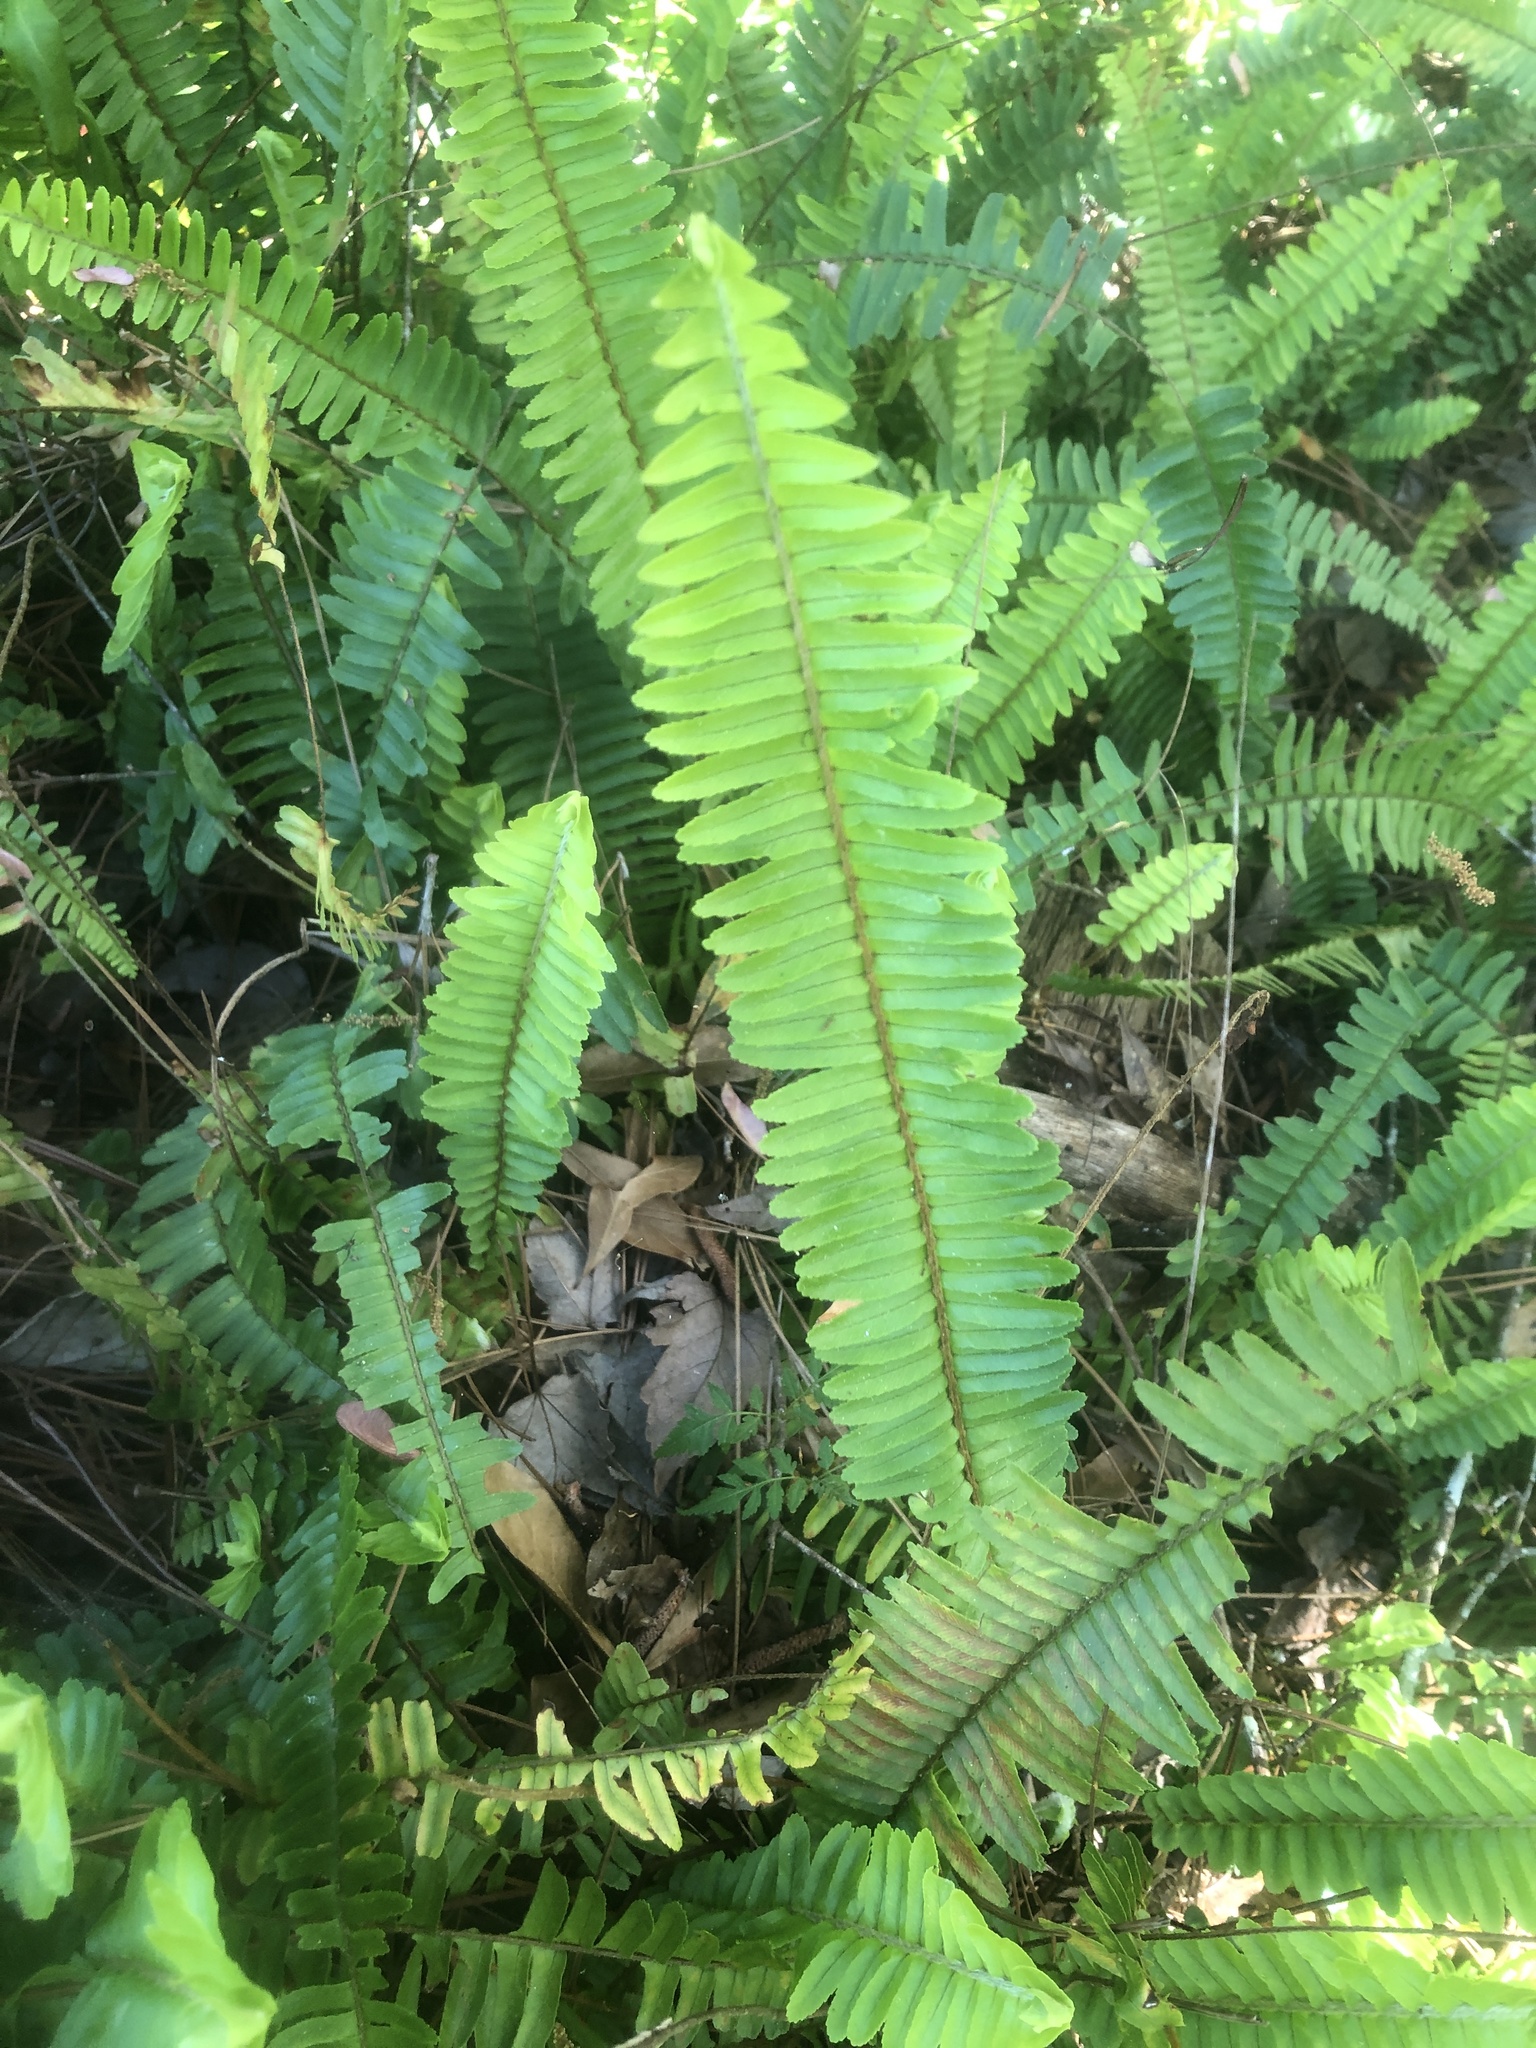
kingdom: Plantae
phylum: Tracheophyta
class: Polypodiopsida
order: Polypodiales
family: Nephrolepidaceae
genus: Nephrolepis
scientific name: Nephrolepis cordifolia
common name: Narrow swordfern
